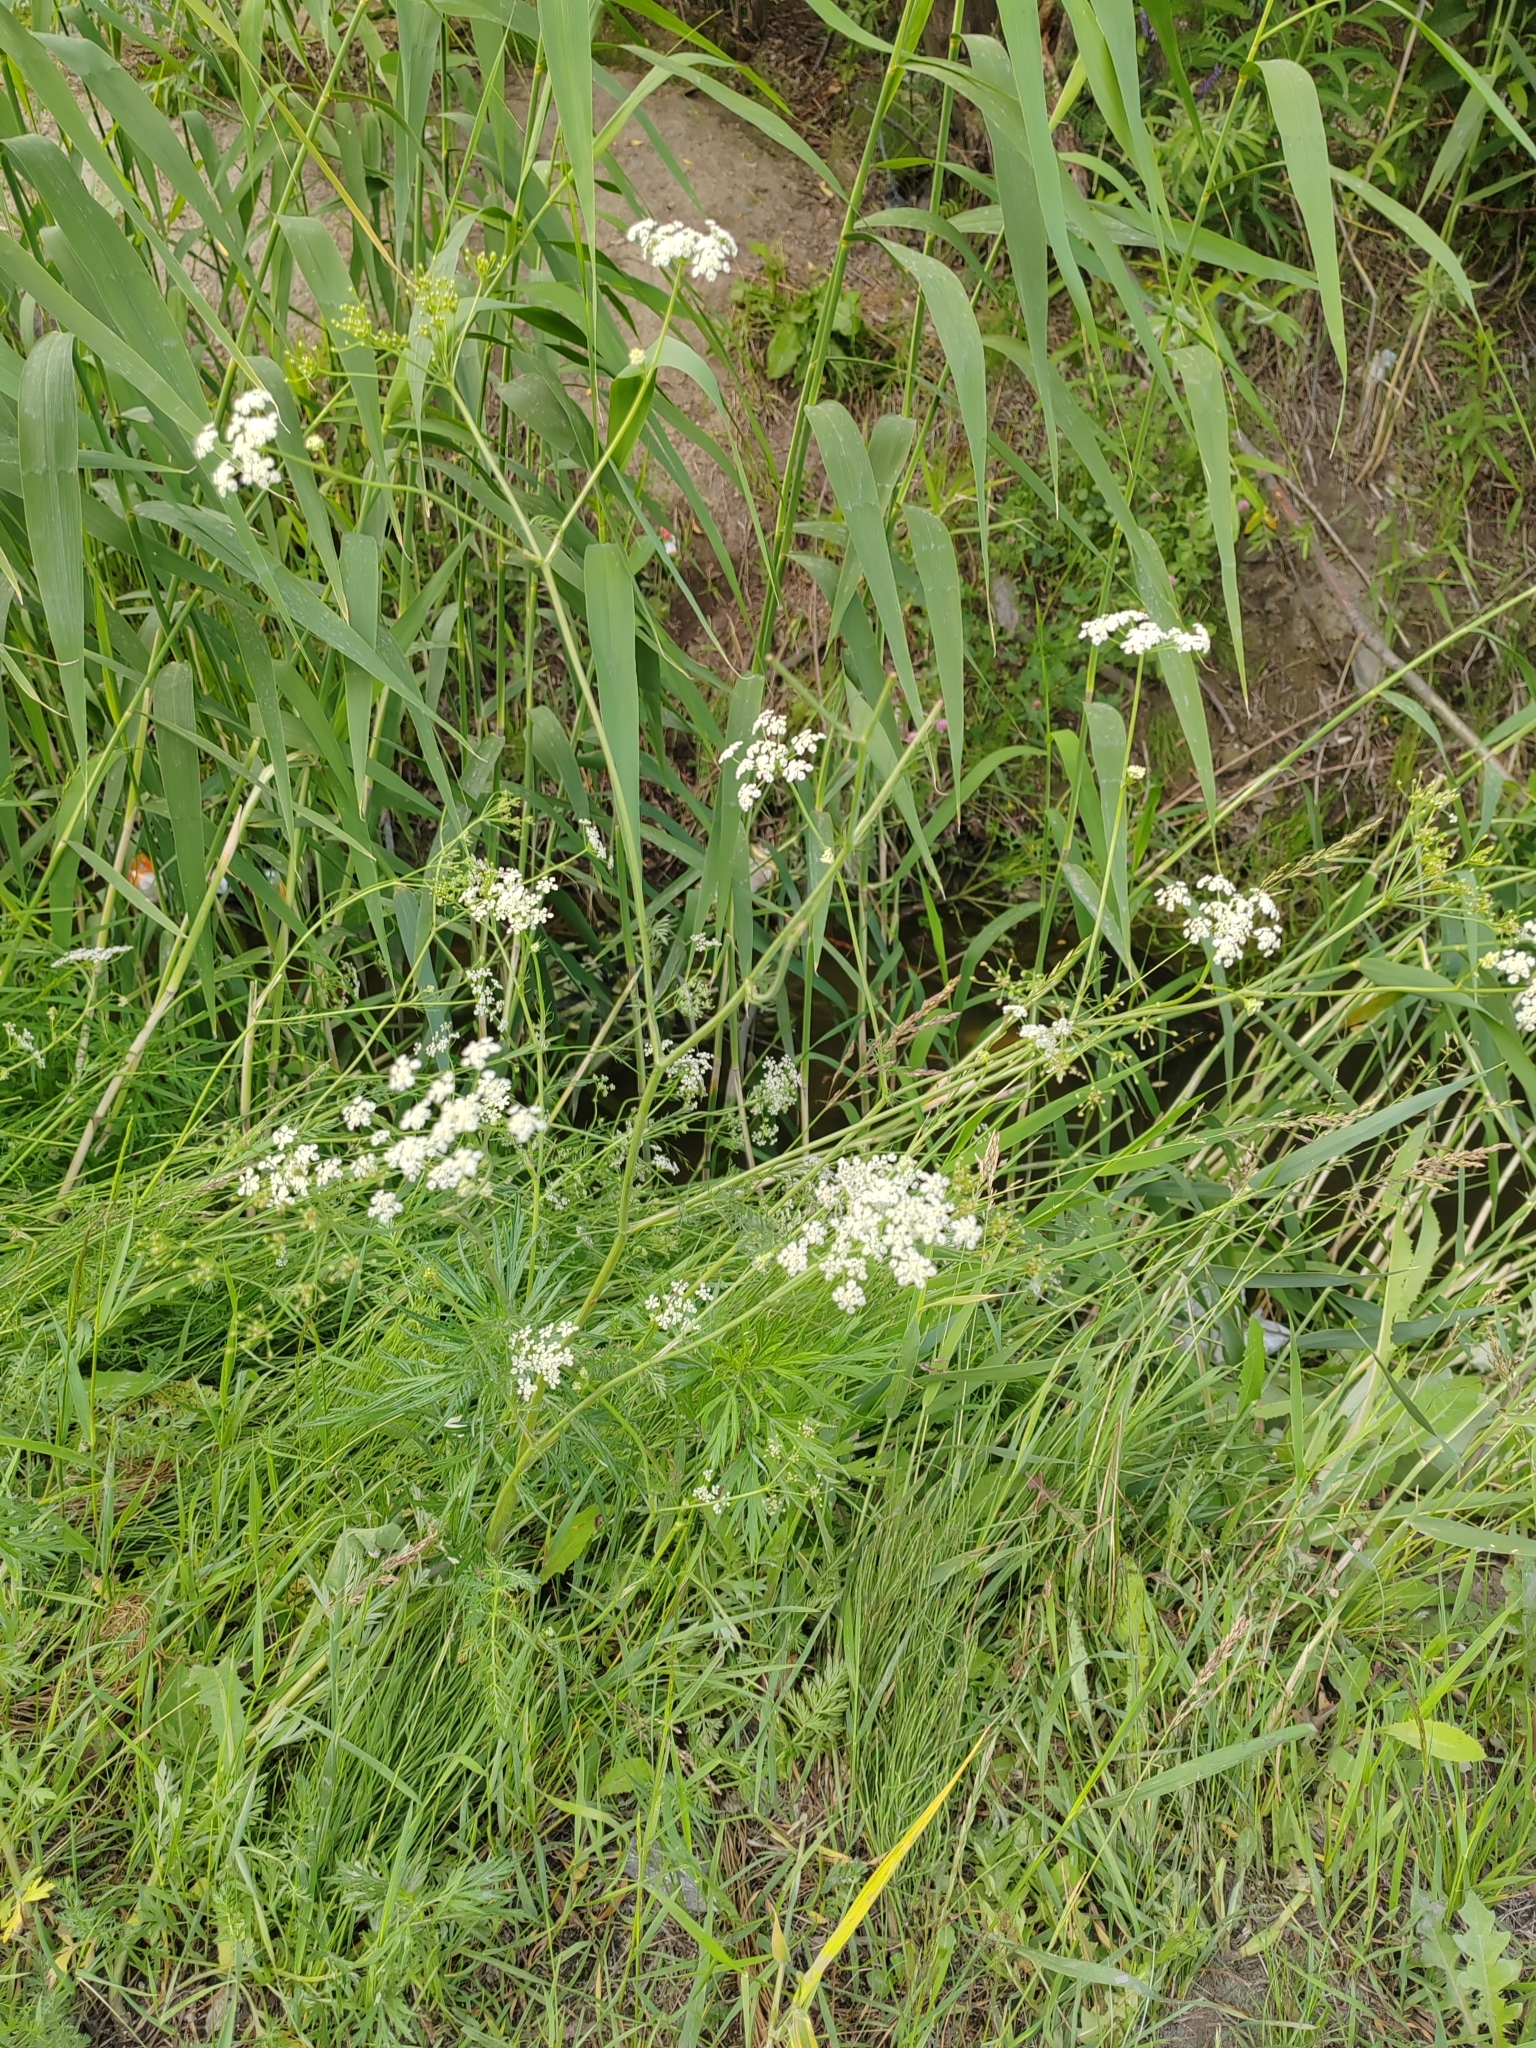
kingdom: Plantae
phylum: Tracheophyta
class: Magnoliopsida
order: Apiales
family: Apiaceae
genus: Carum
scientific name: Carum carvi
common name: Caraway
